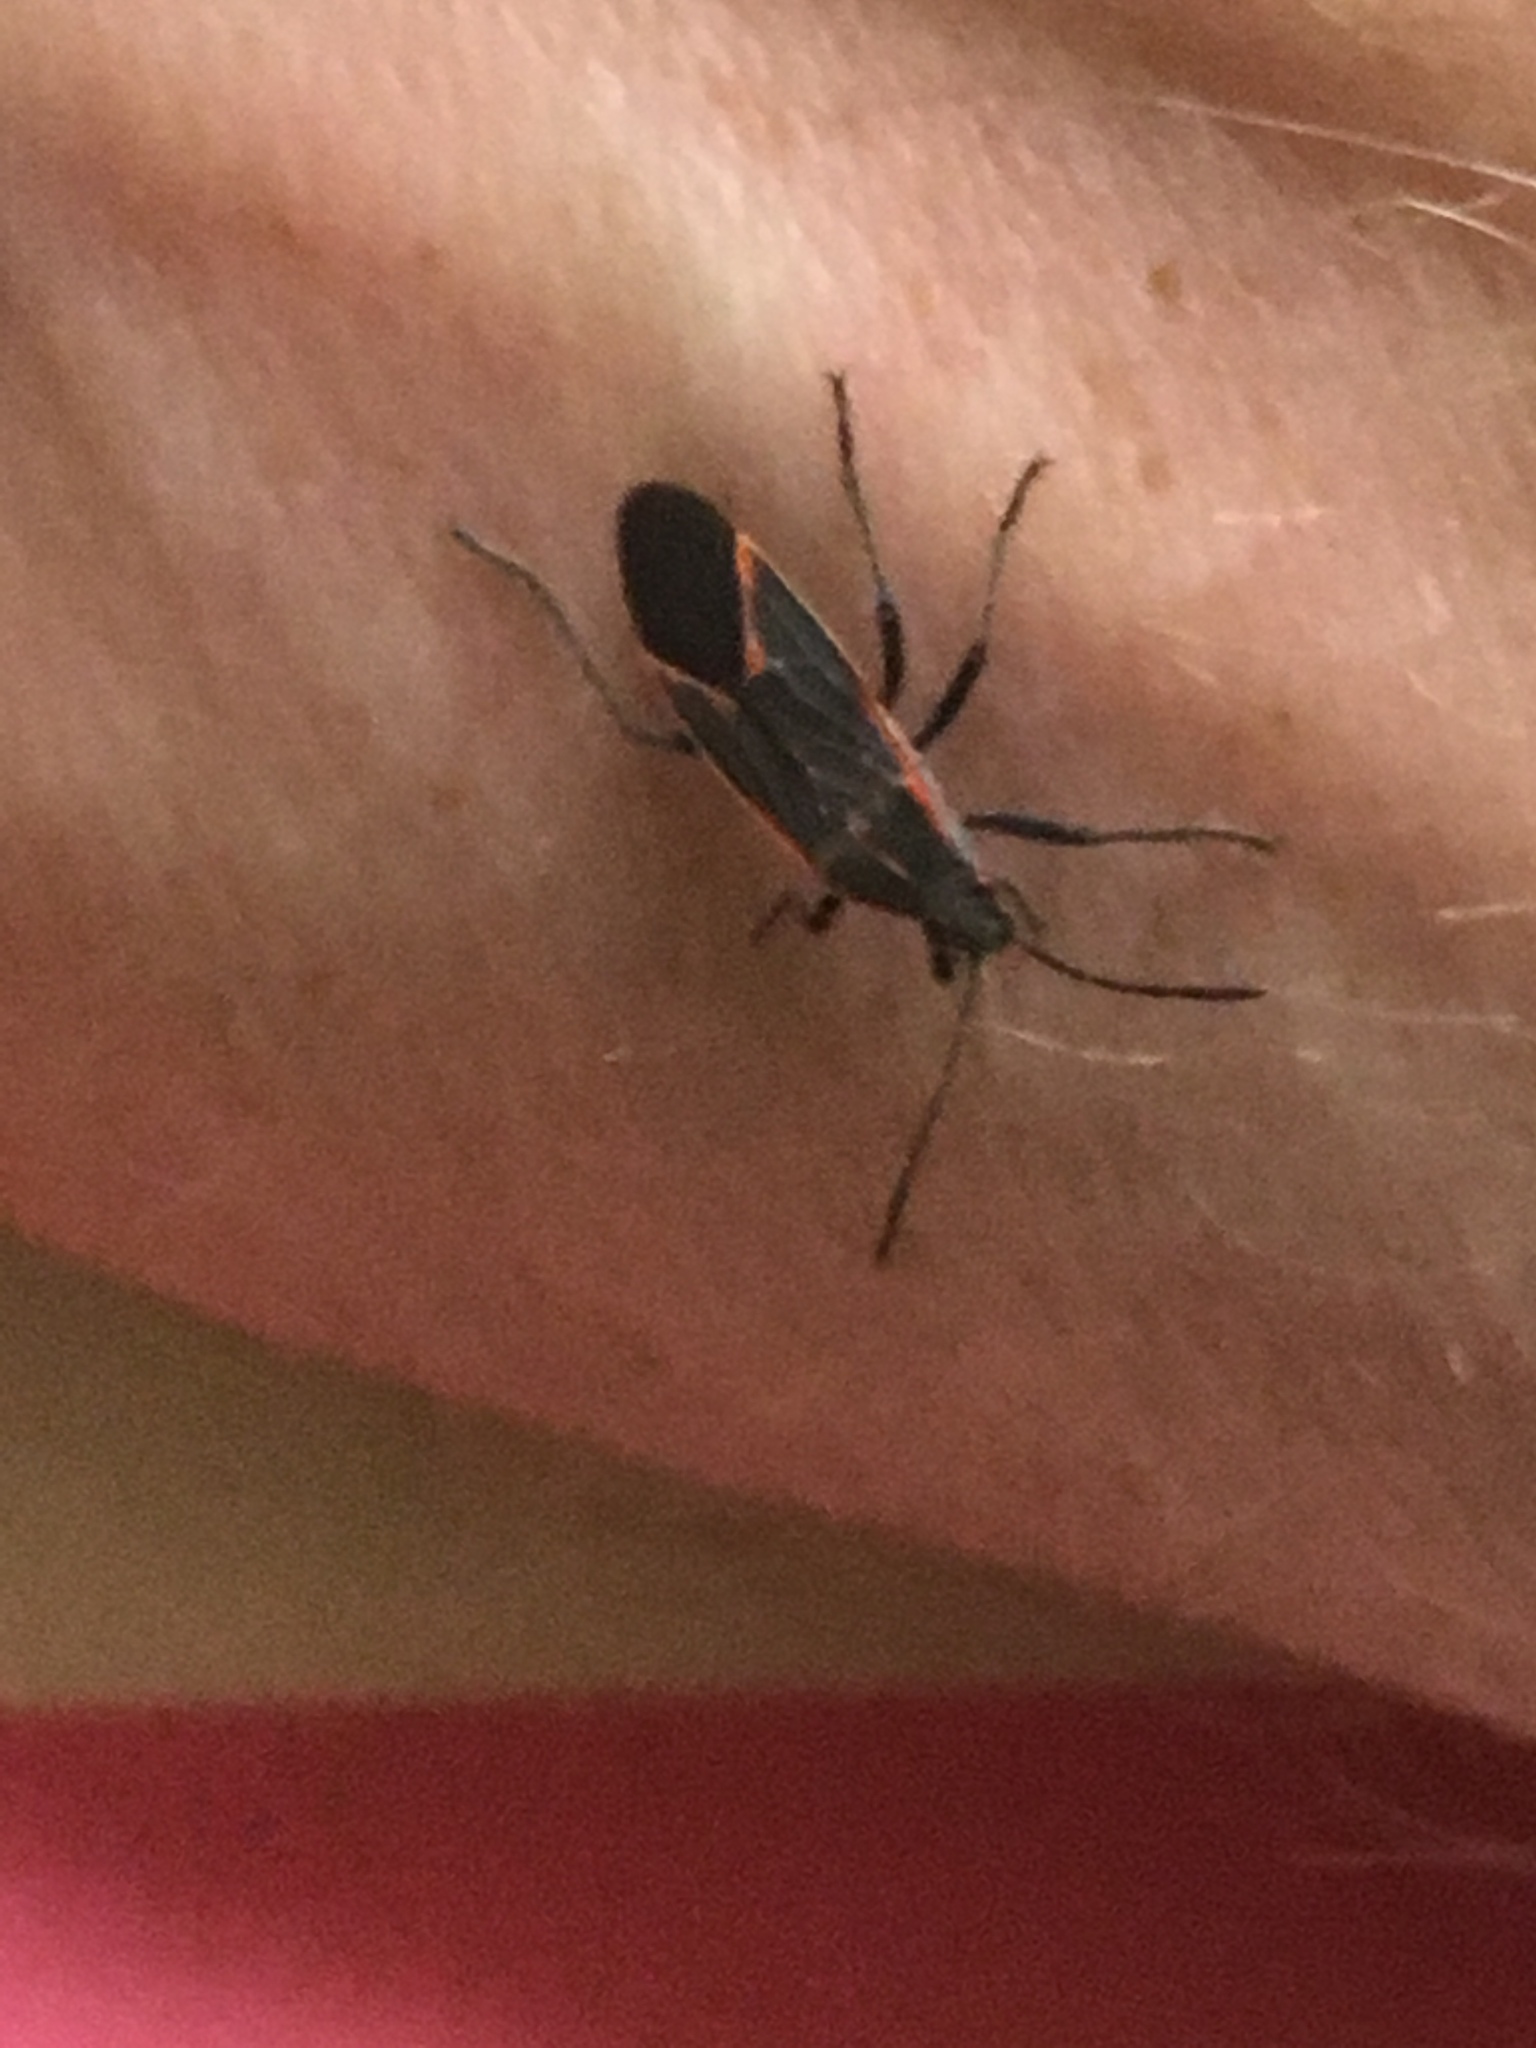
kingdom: Animalia
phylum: Arthropoda
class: Insecta
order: Hemiptera
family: Rhopalidae
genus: Boisea
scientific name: Boisea trivittata
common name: Boxelder bug
